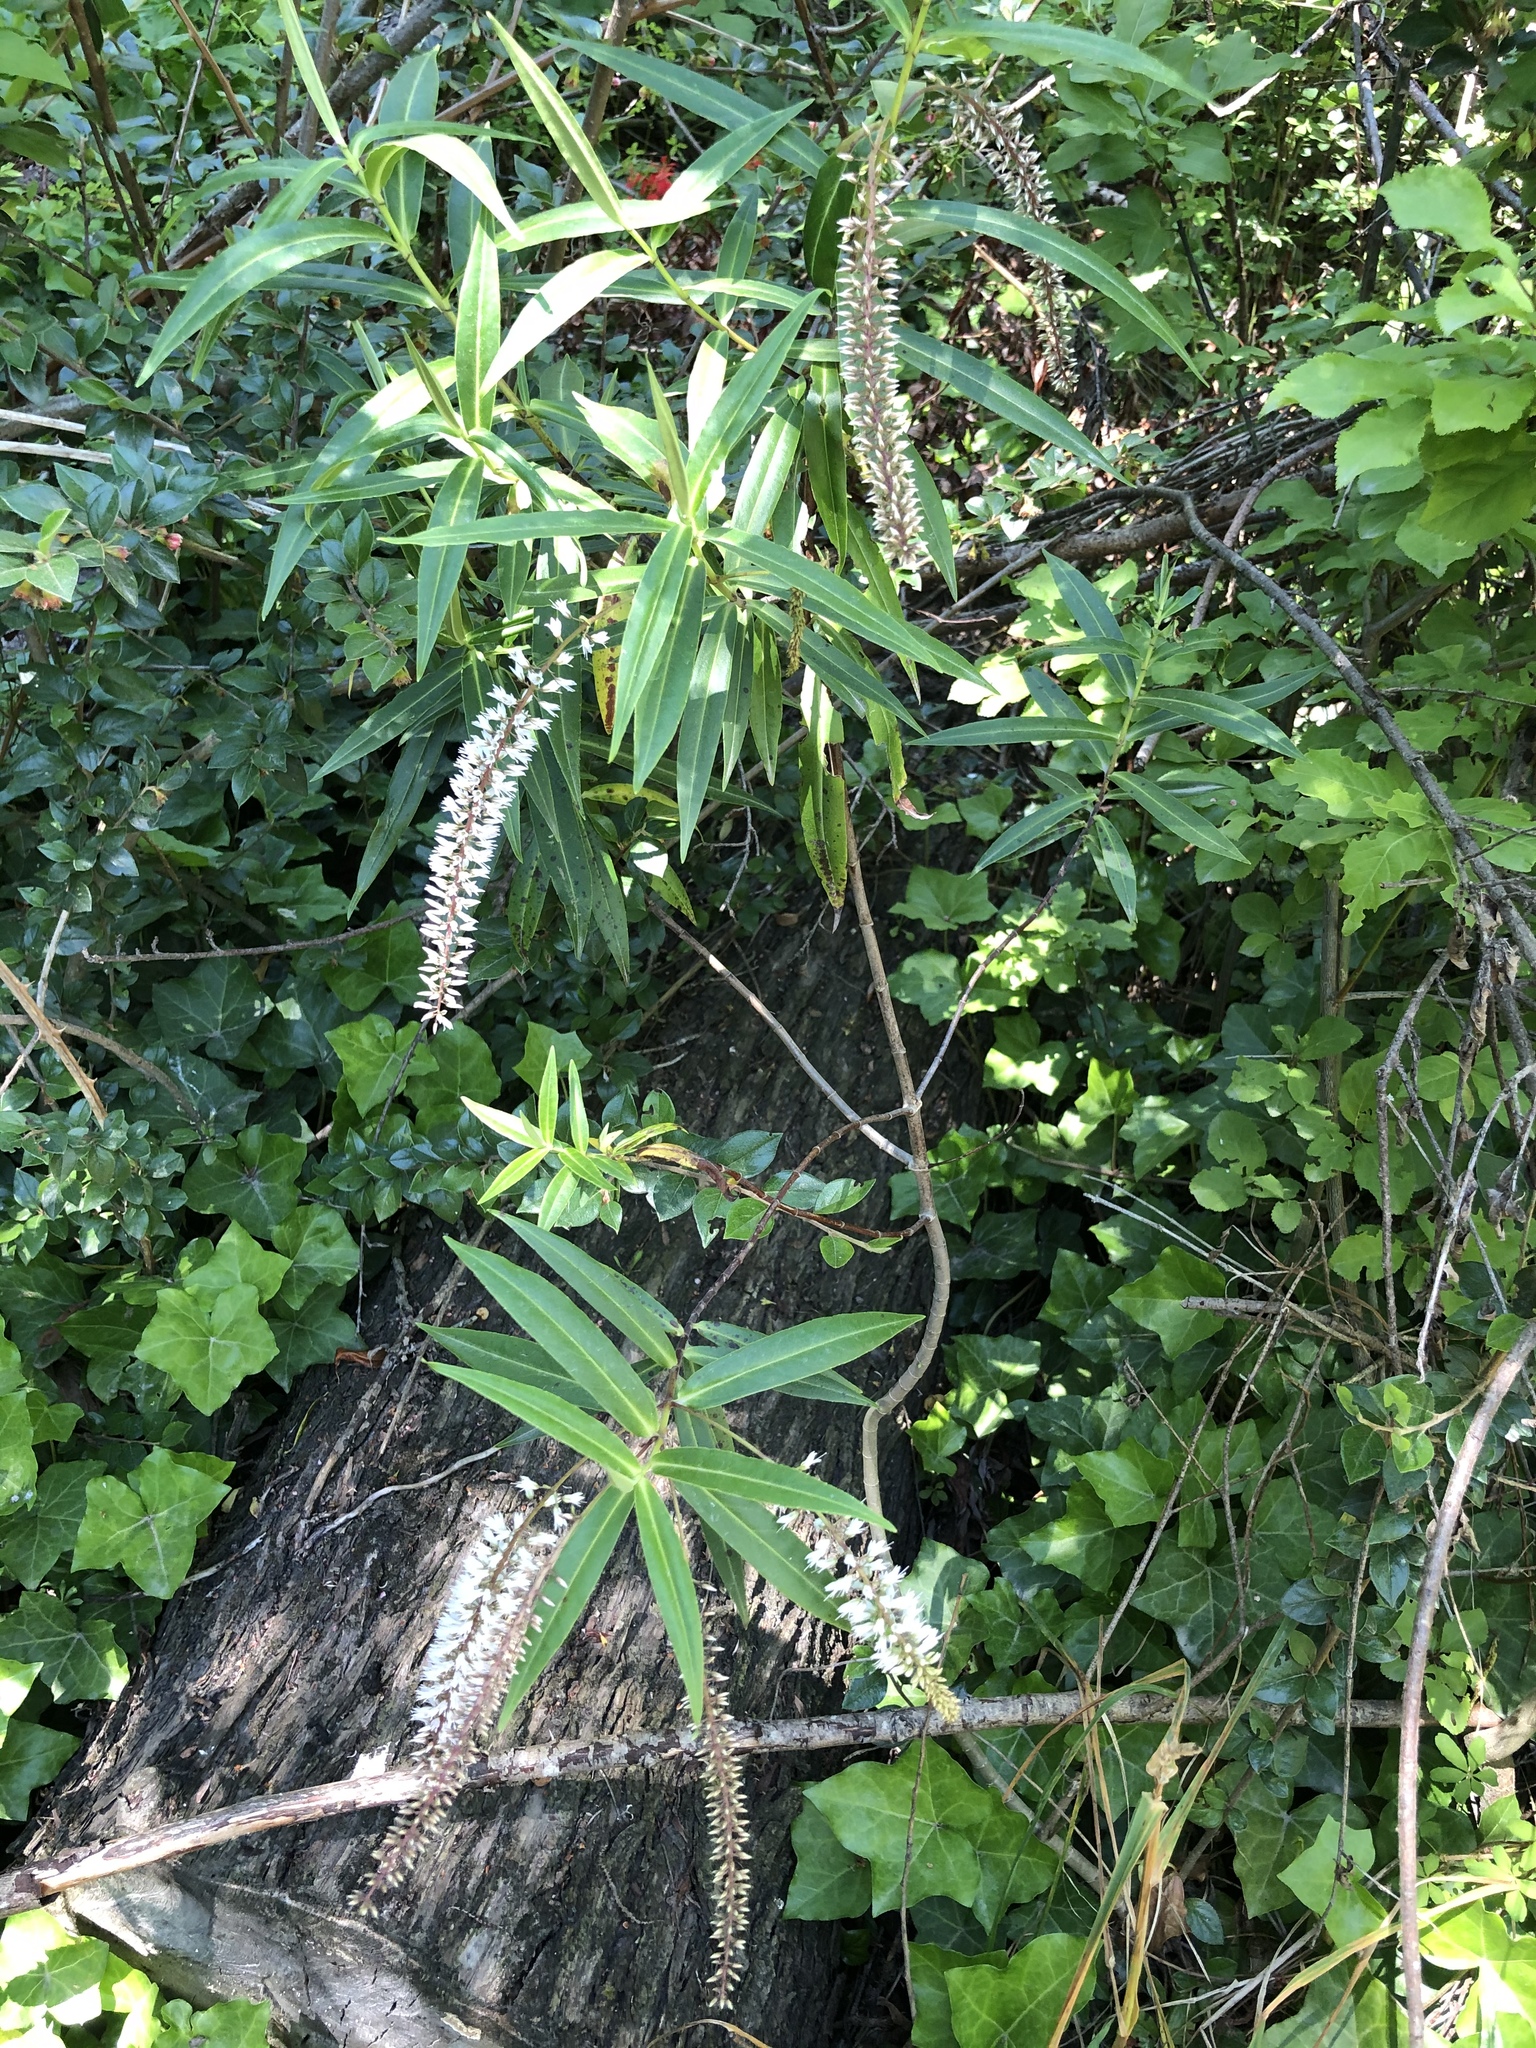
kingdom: Plantae
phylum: Tracheophyta
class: Magnoliopsida
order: Lamiales
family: Plantaginaceae
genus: Veronica
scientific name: Veronica salicifolia
